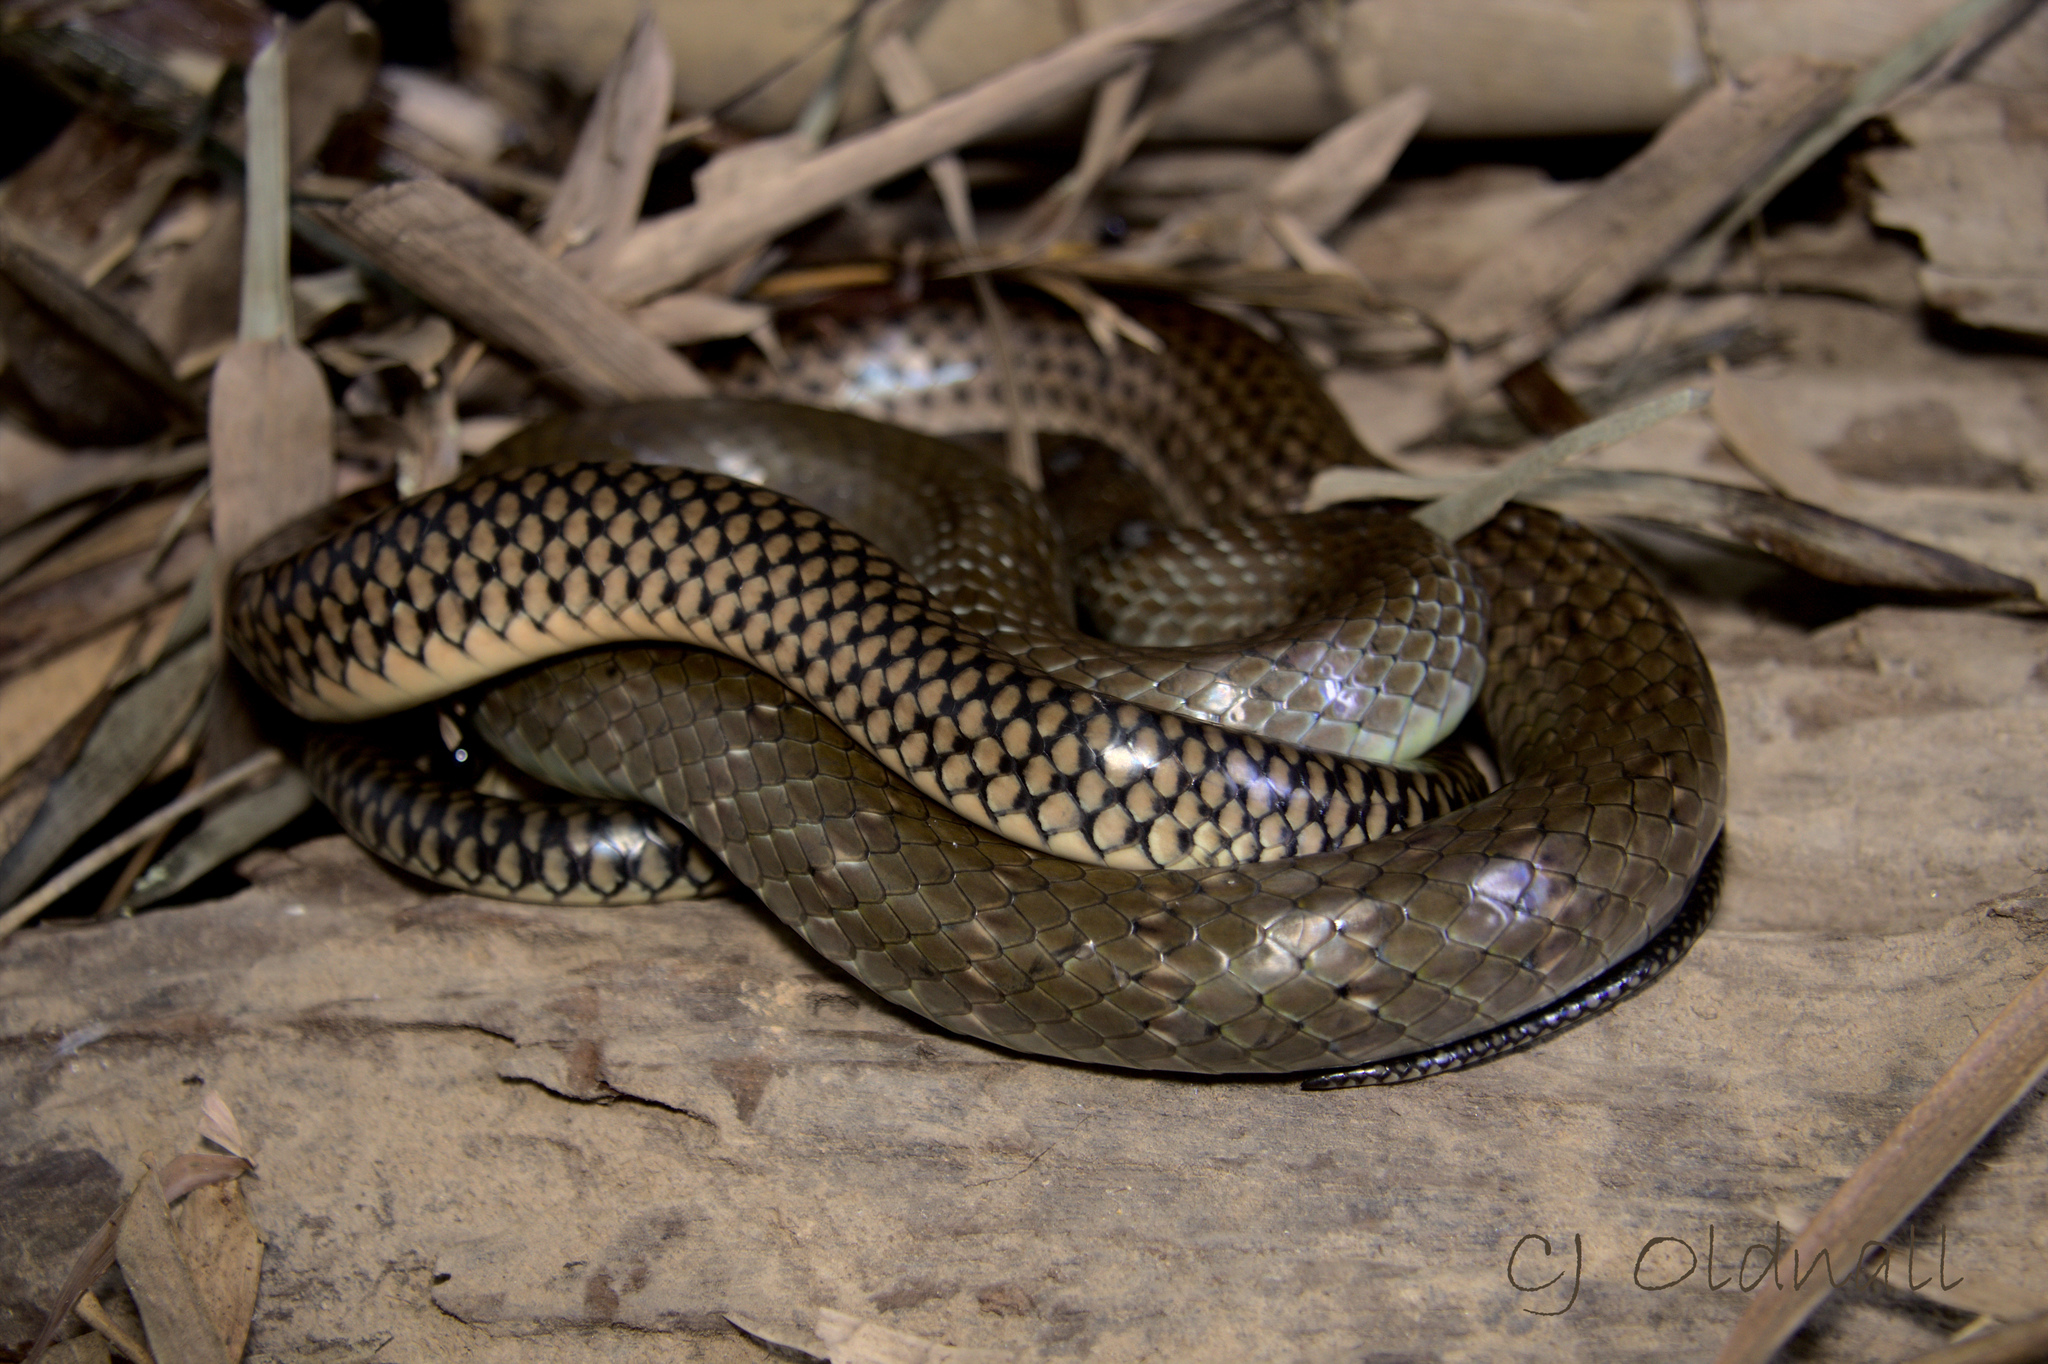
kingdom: Animalia
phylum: Chordata
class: Squamata
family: Colubridae
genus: Ptyas
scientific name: Ptyas korros
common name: Indo-chinese rat snake
